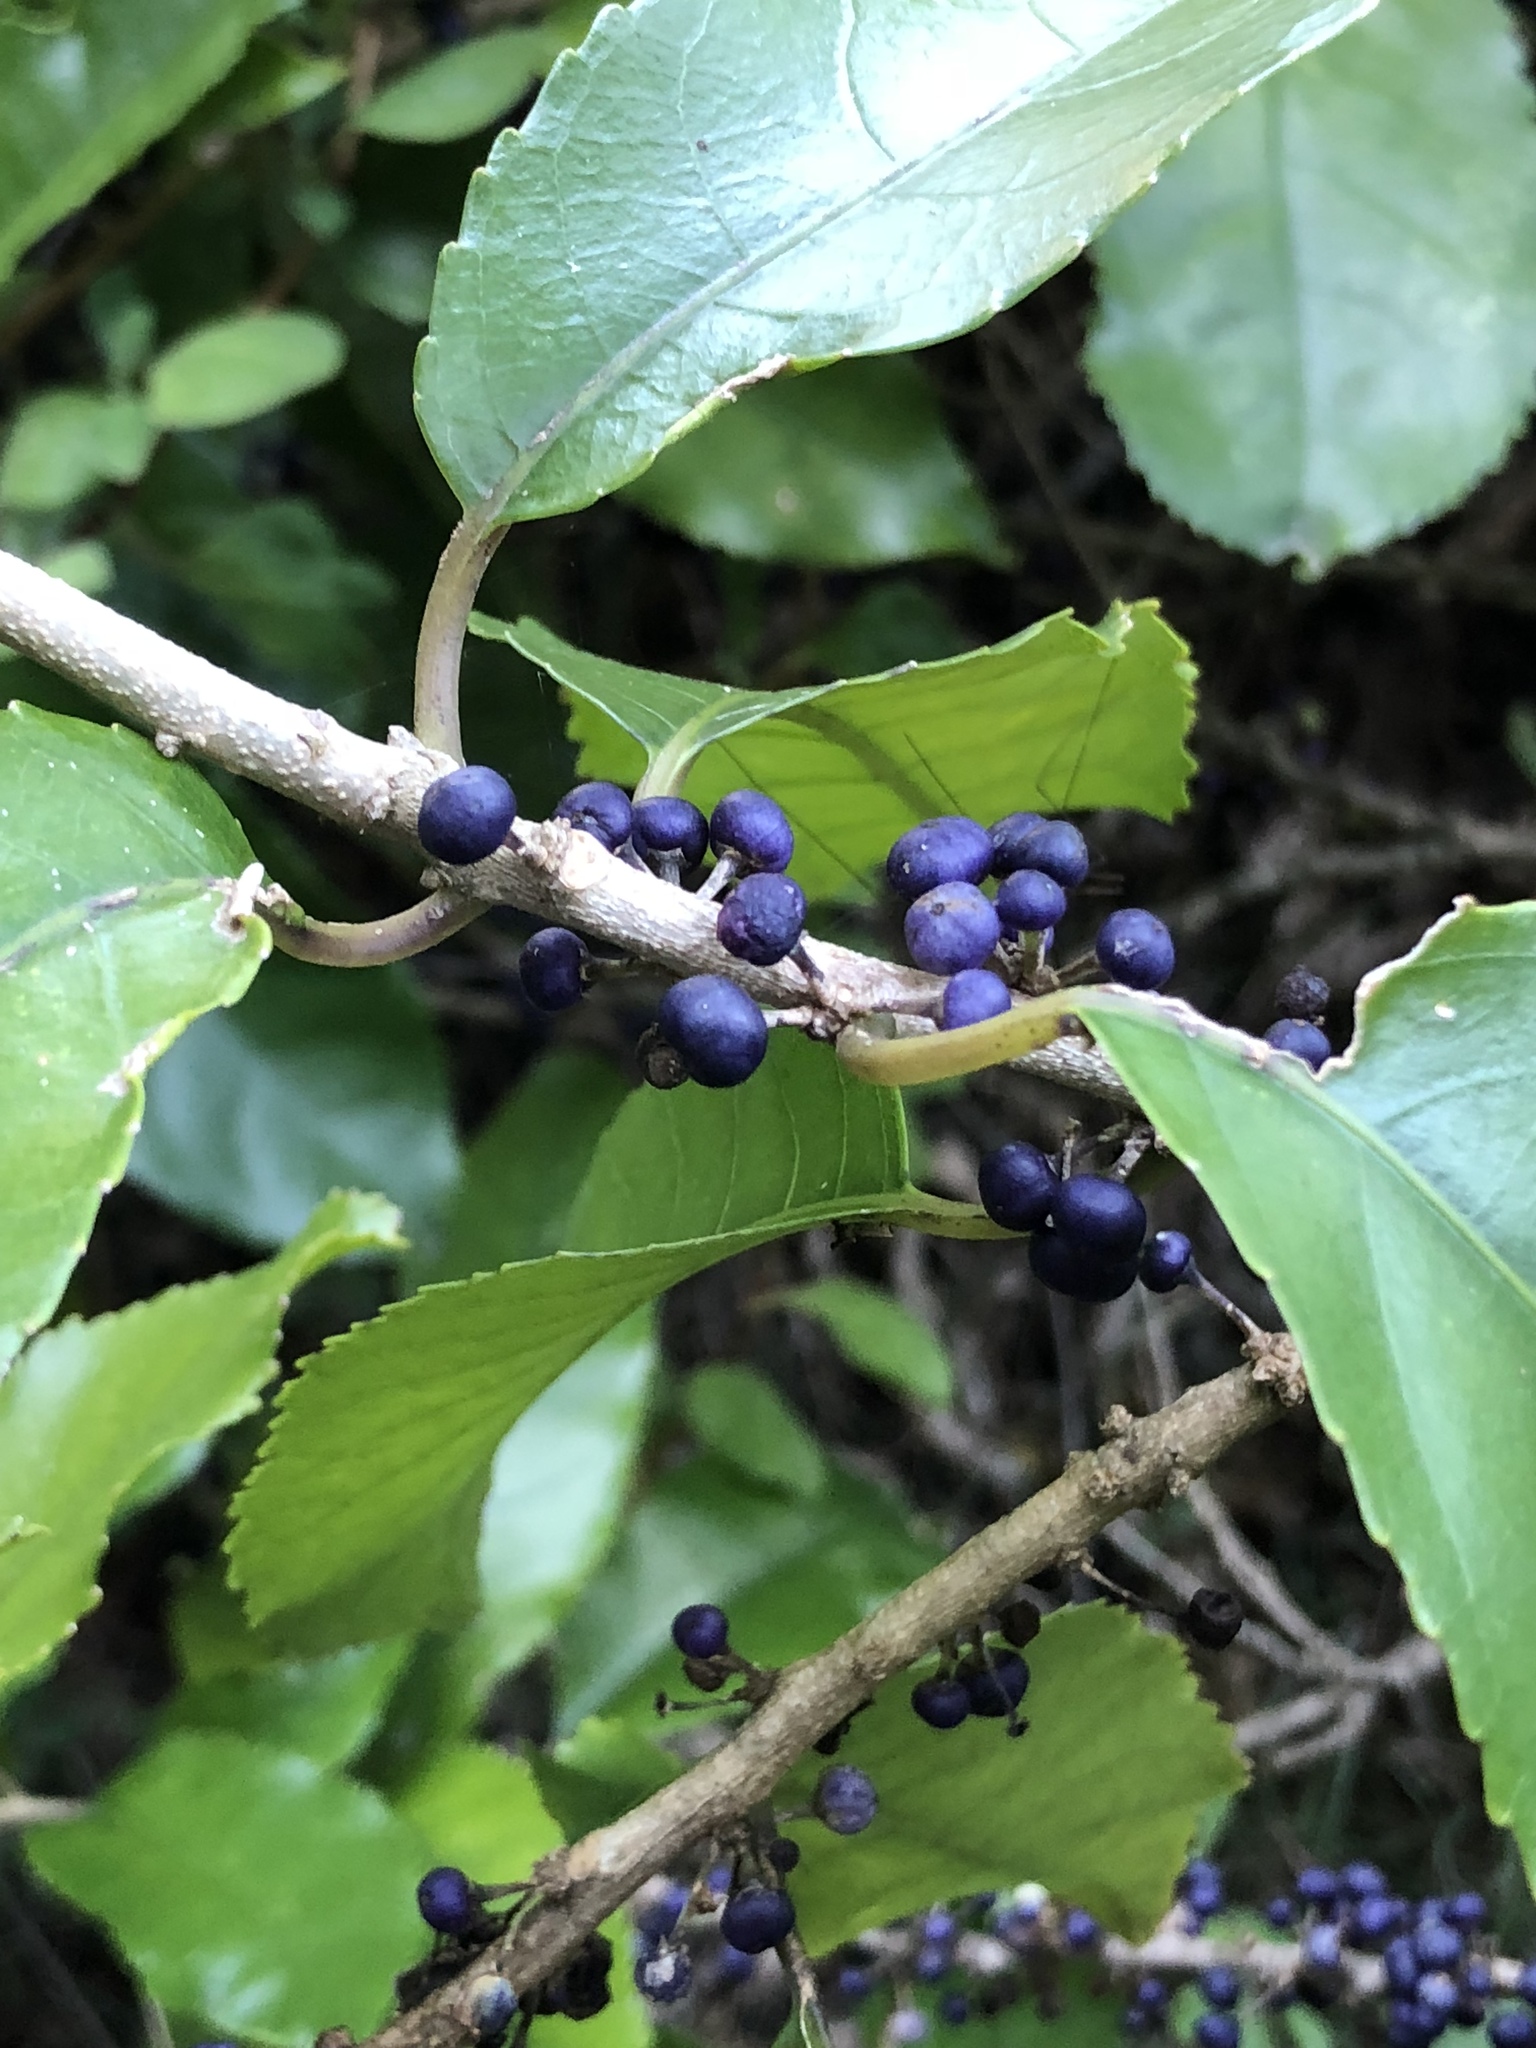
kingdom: Plantae
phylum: Tracheophyta
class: Magnoliopsida
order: Malpighiales
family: Violaceae
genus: Melicytus
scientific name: Melicytus ramiflorus
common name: Mahoe
